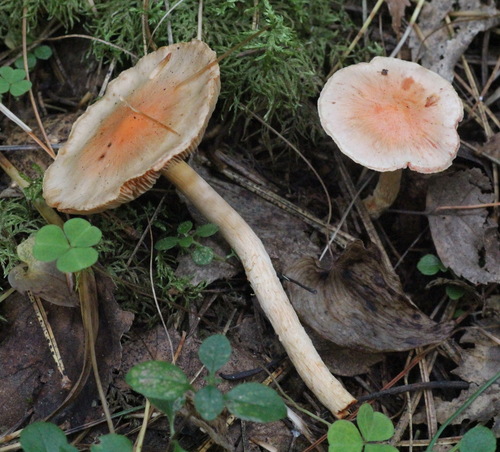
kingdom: Fungi
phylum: Basidiomycota
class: Agaricomycetes
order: Agaricales
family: Strophariaceae
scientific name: Strophariaceae
